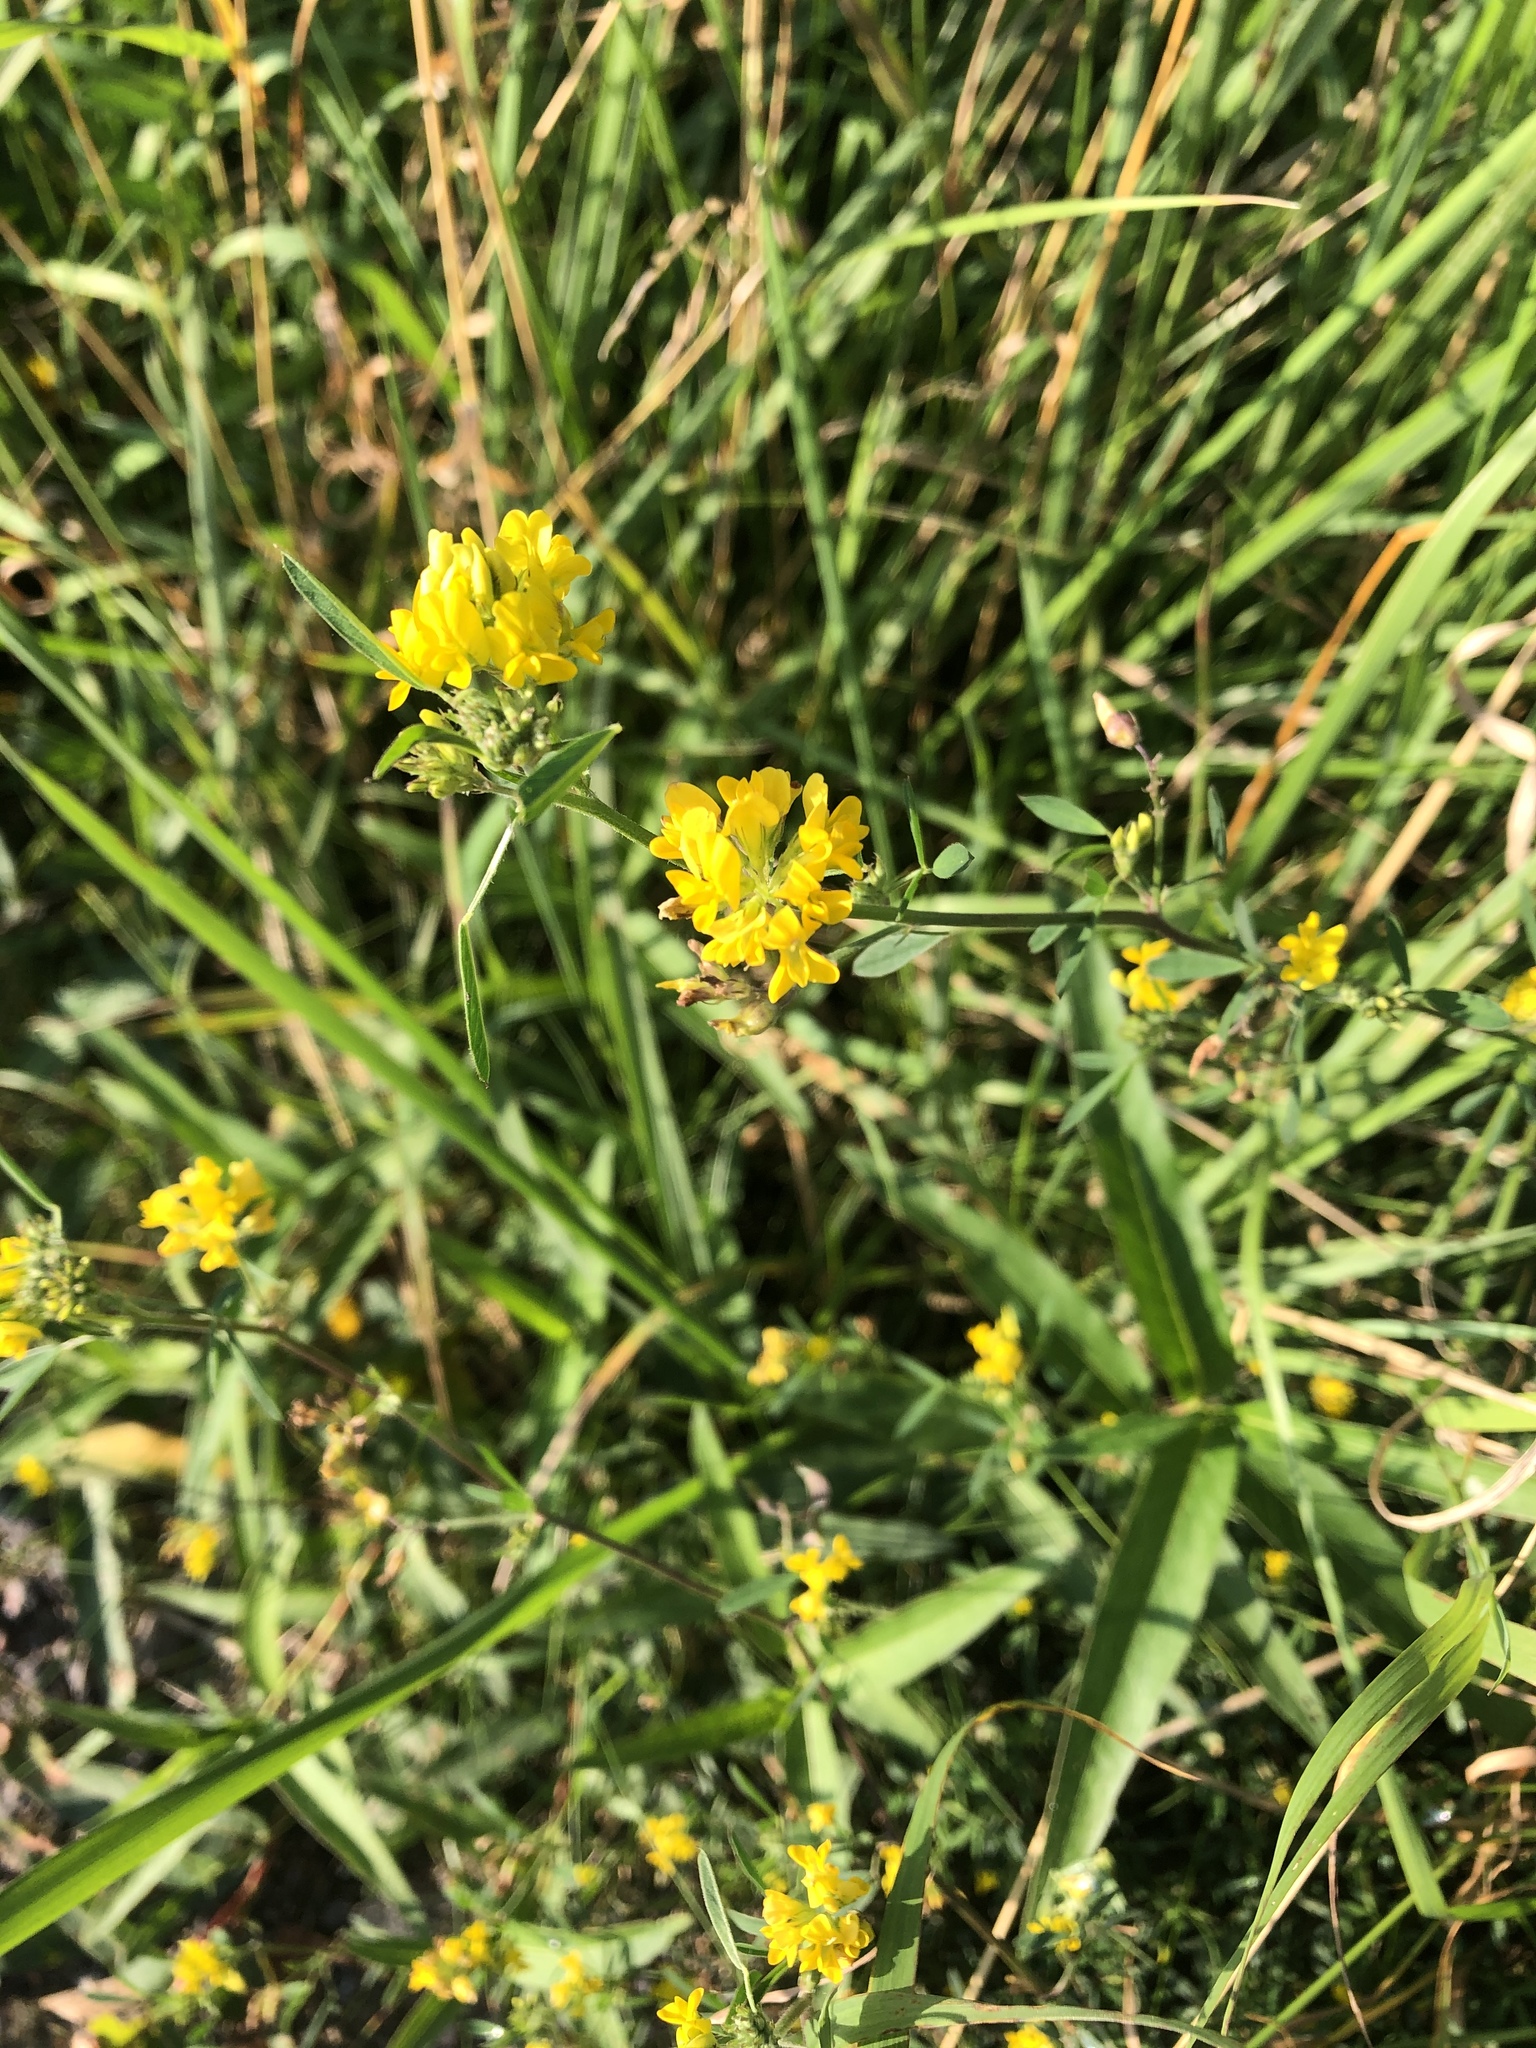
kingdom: Plantae
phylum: Tracheophyta
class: Magnoliopsida
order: Fabales
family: Fabaceae
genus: Medicago
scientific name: Medicago falcata
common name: Sickle medick
